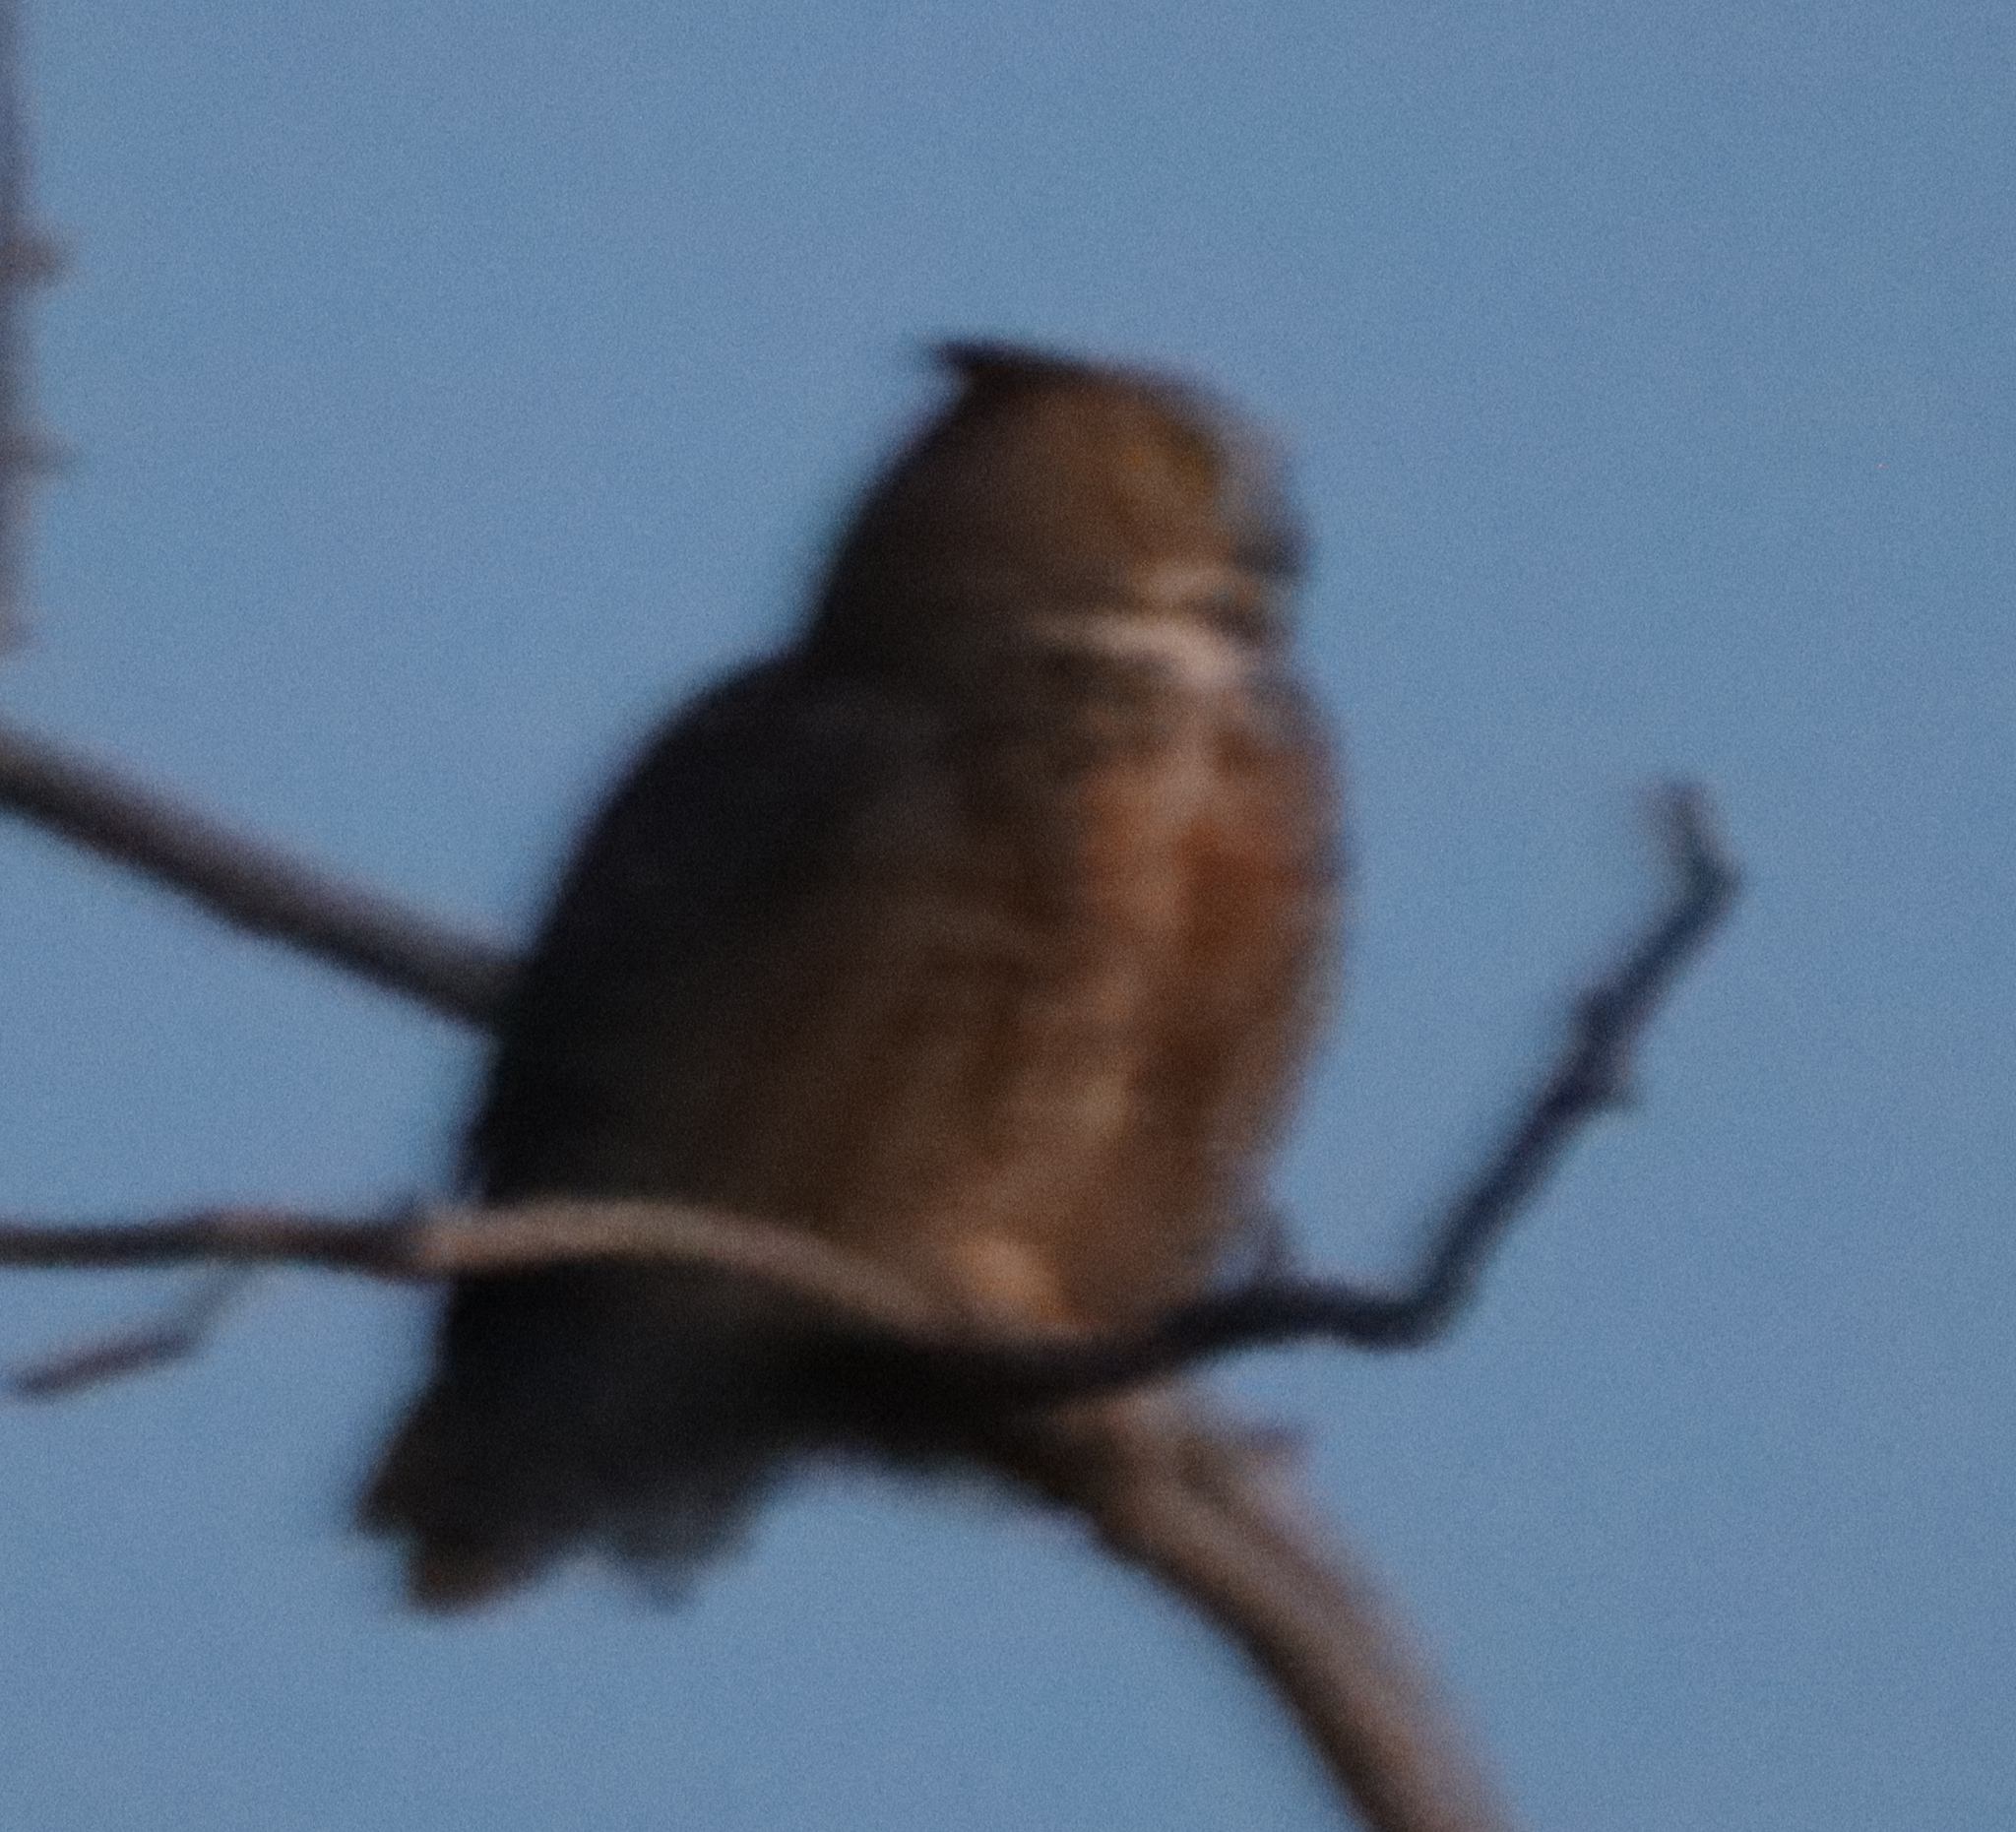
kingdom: Animalia
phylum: Chordata
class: Aves
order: Strigiformes
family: Strigidae
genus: Bubo
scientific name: Bubo virginianus
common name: Great horned owl
